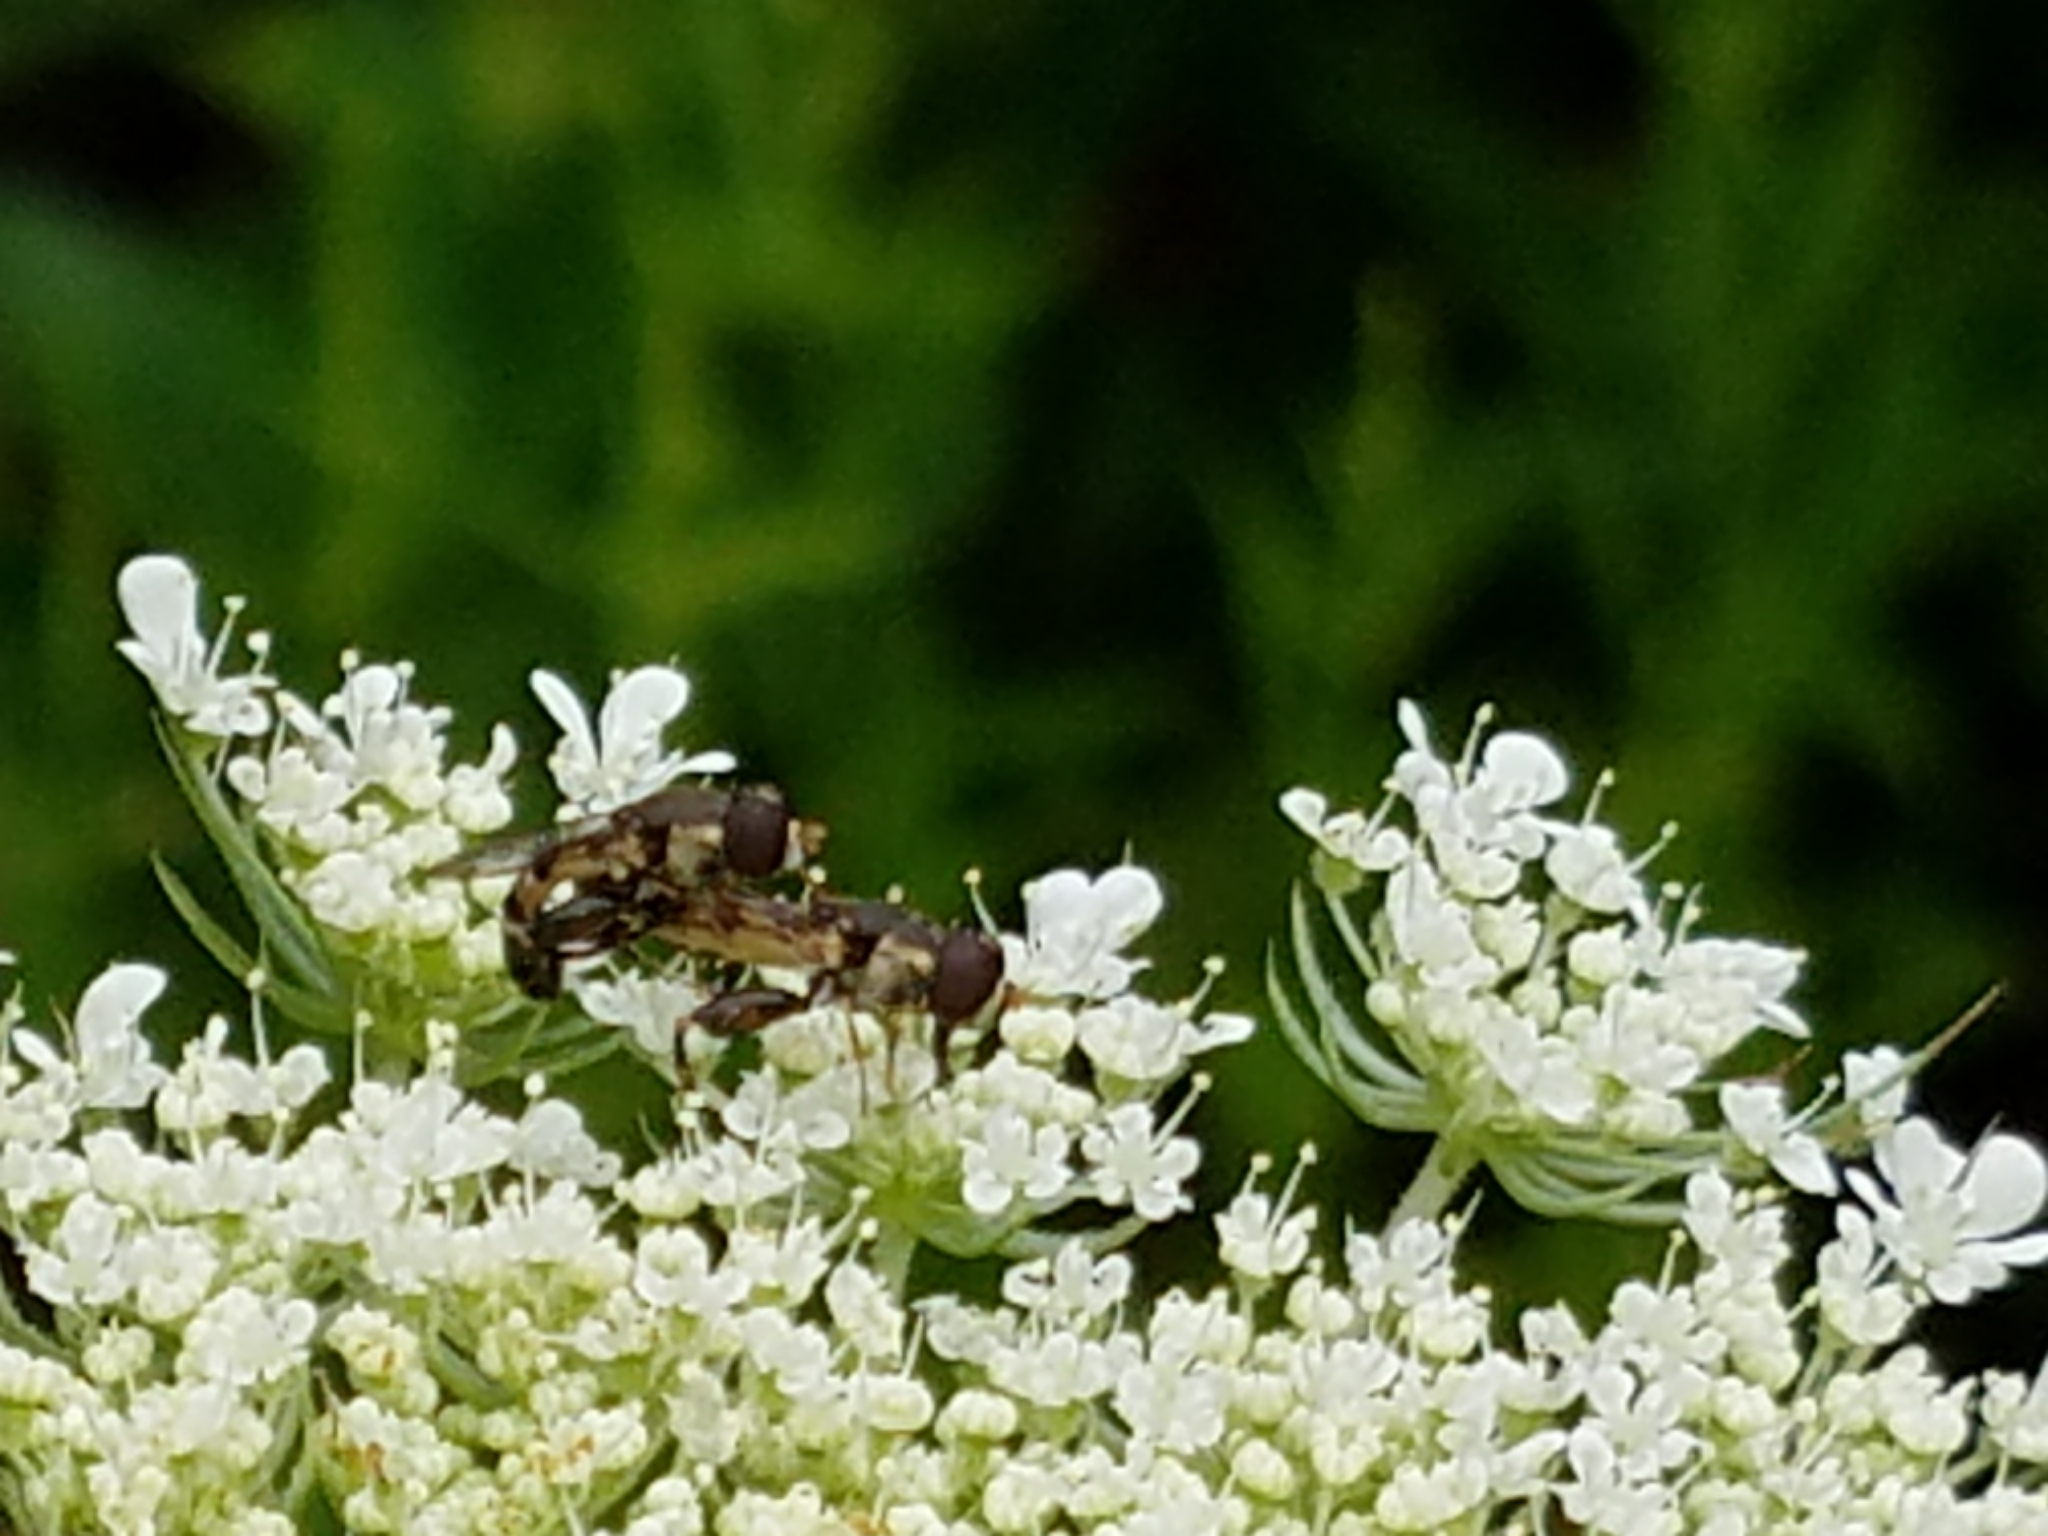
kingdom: Animalia
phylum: Arthropoda
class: Insecta
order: Diptera
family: Syrphidae
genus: Syritta
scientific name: Syritta pipiens
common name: Hover fly
